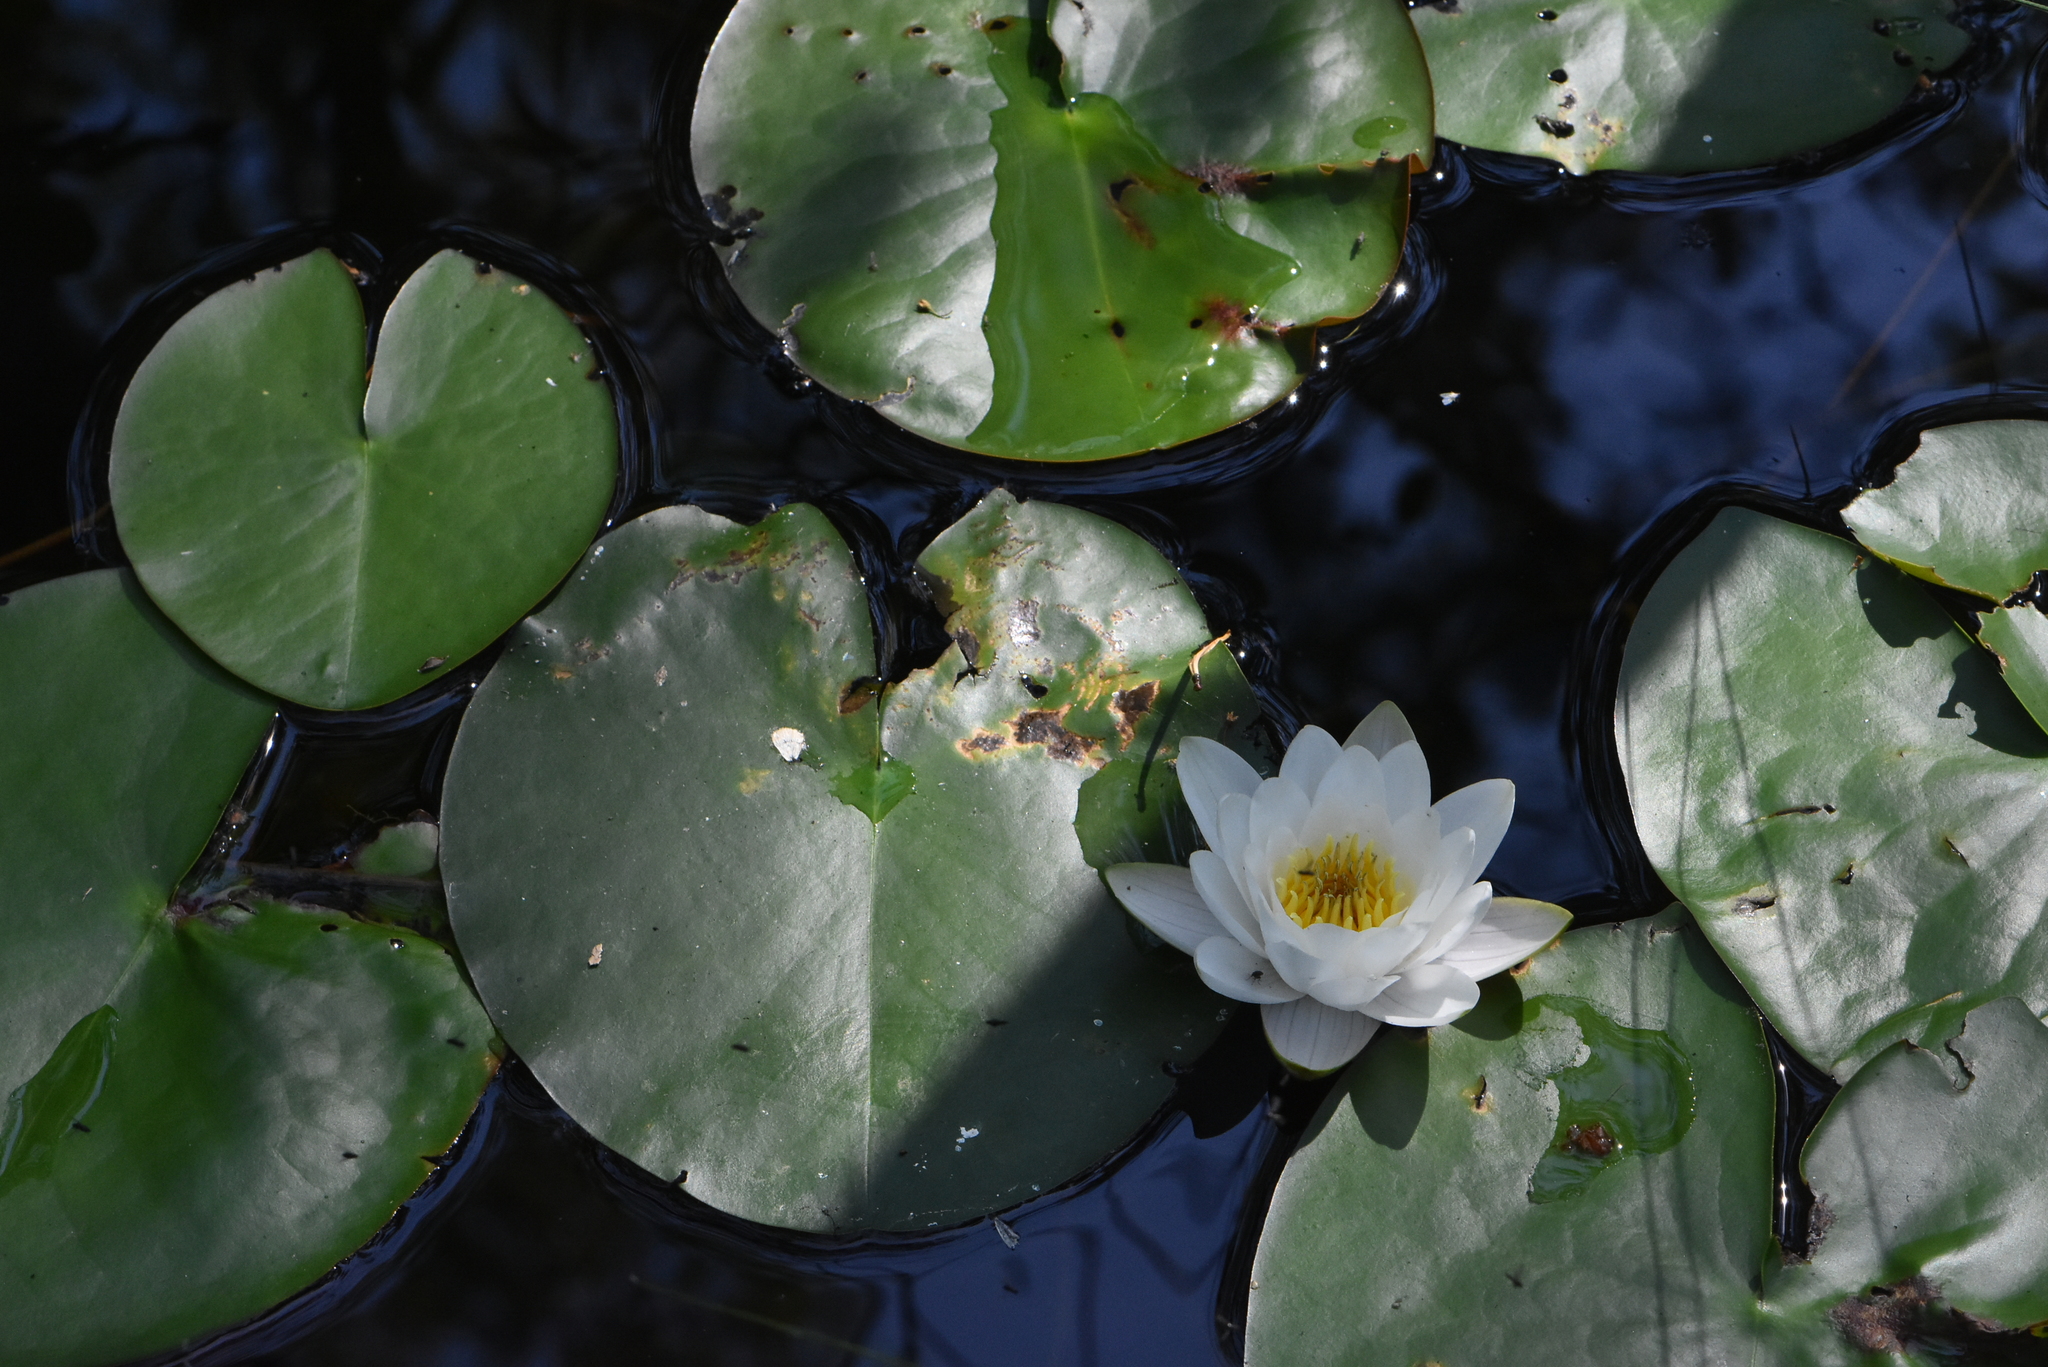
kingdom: Plantae
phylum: Tracheophyta
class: Magnoliopsida
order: Nymphaeales
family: Nymphaeaceae
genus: Nymphaea
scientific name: Nymphaea candida
